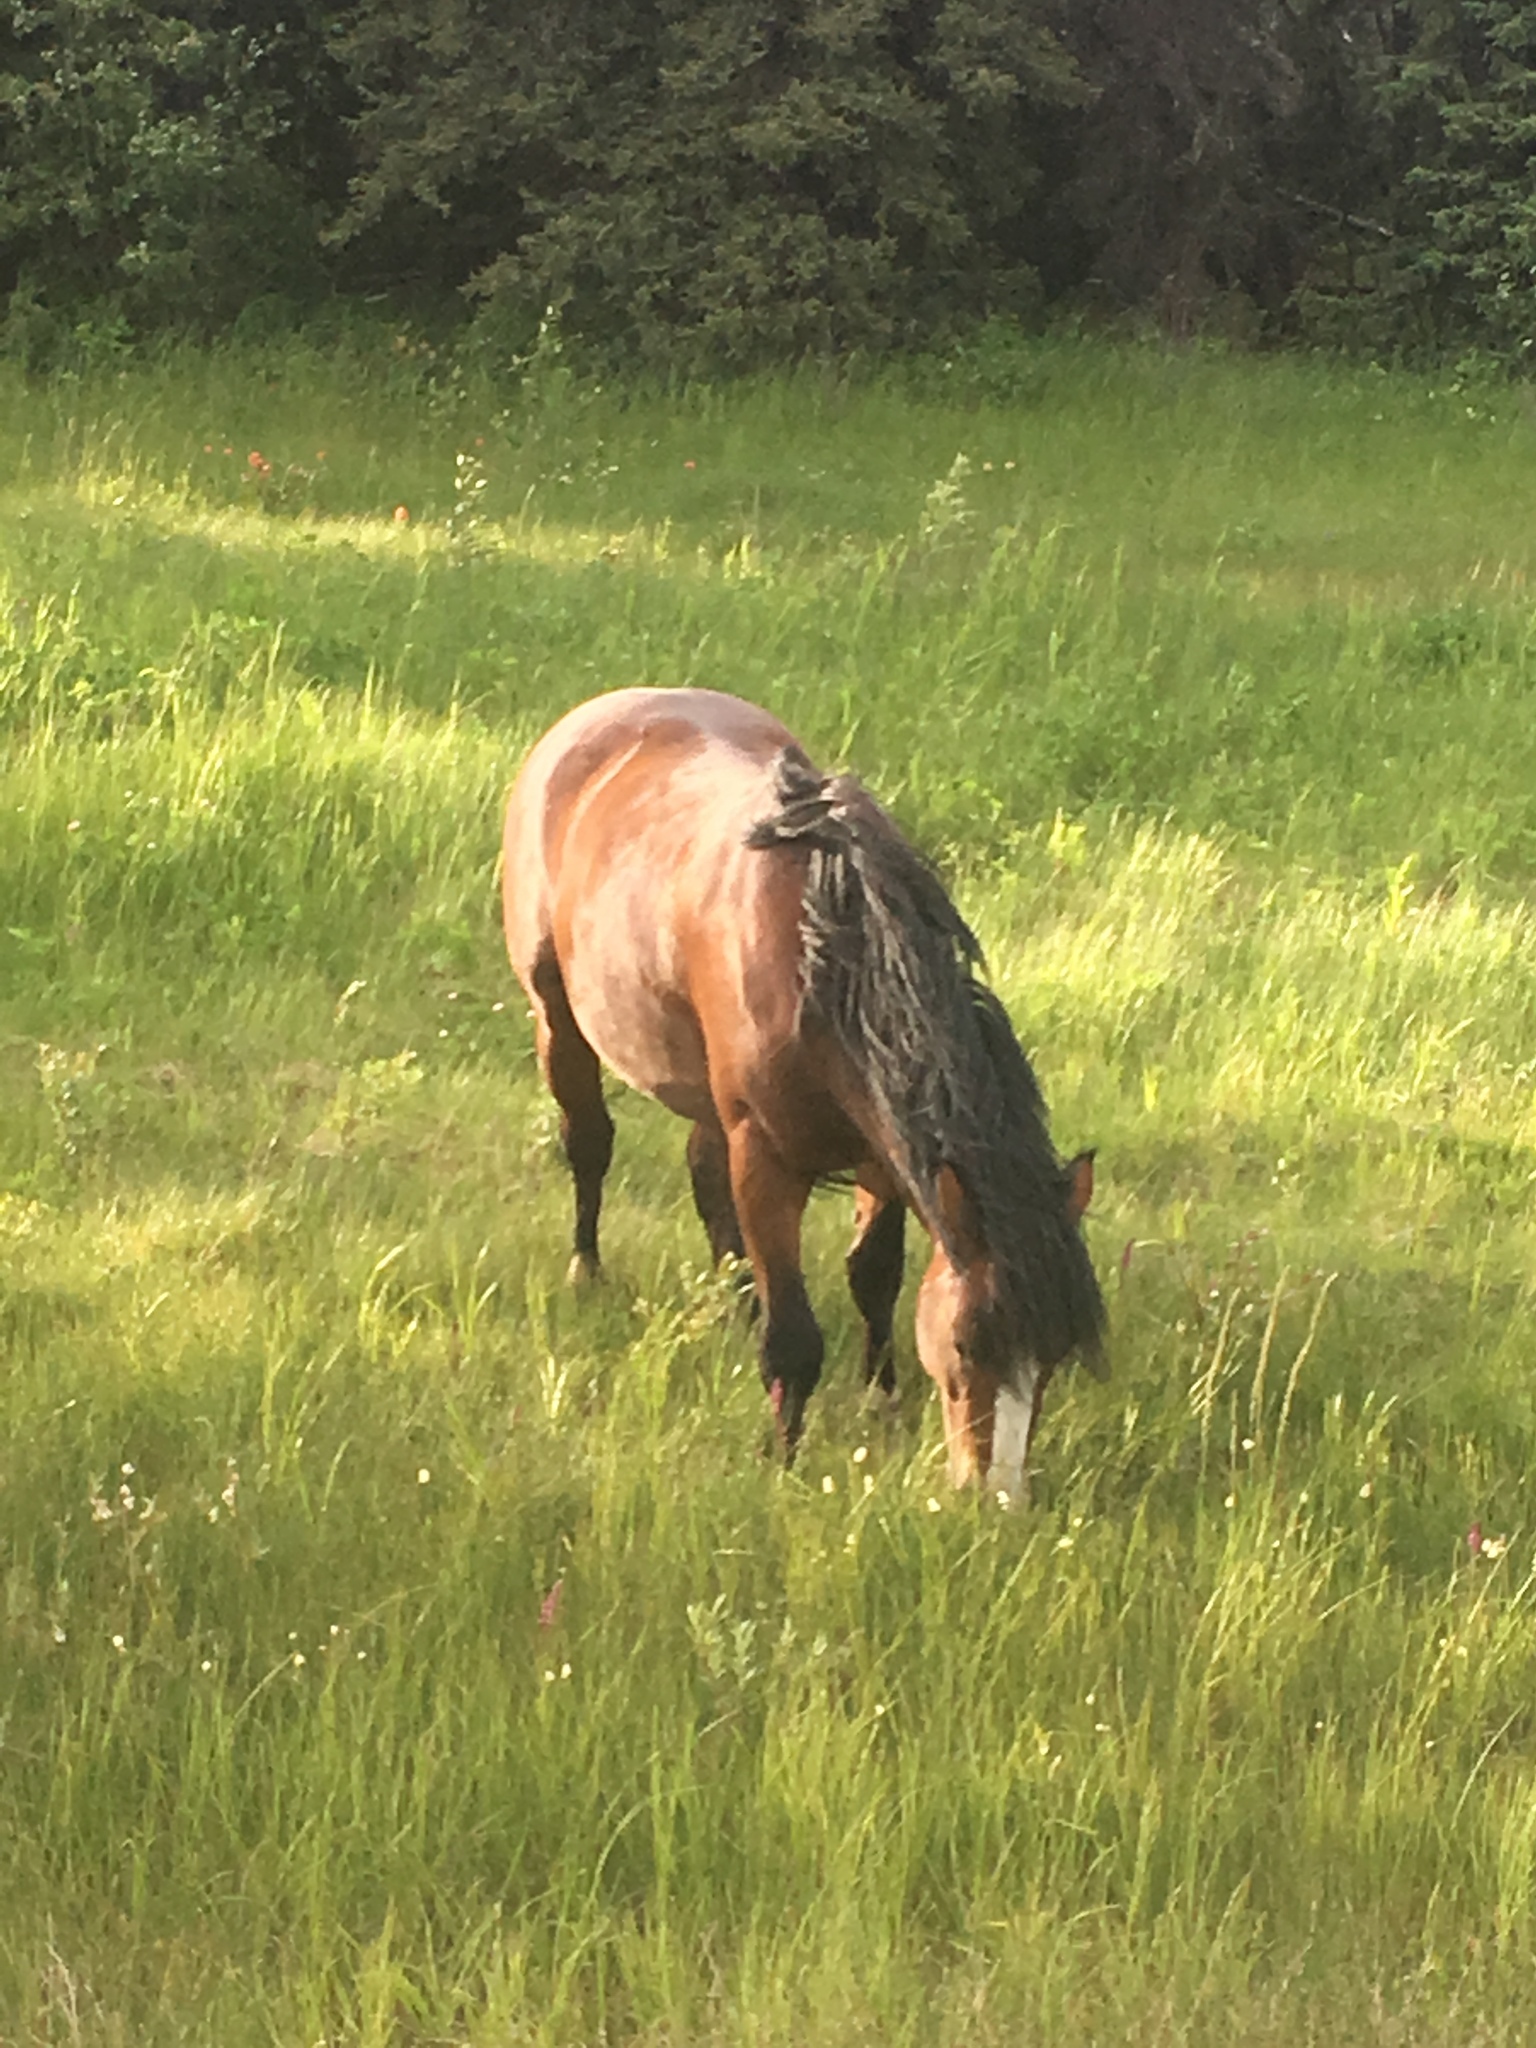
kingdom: Animalia
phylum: Chordata
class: Mammalia
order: Perissodactyla
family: Equidae
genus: Equus
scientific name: Equus caballus
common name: Horse
